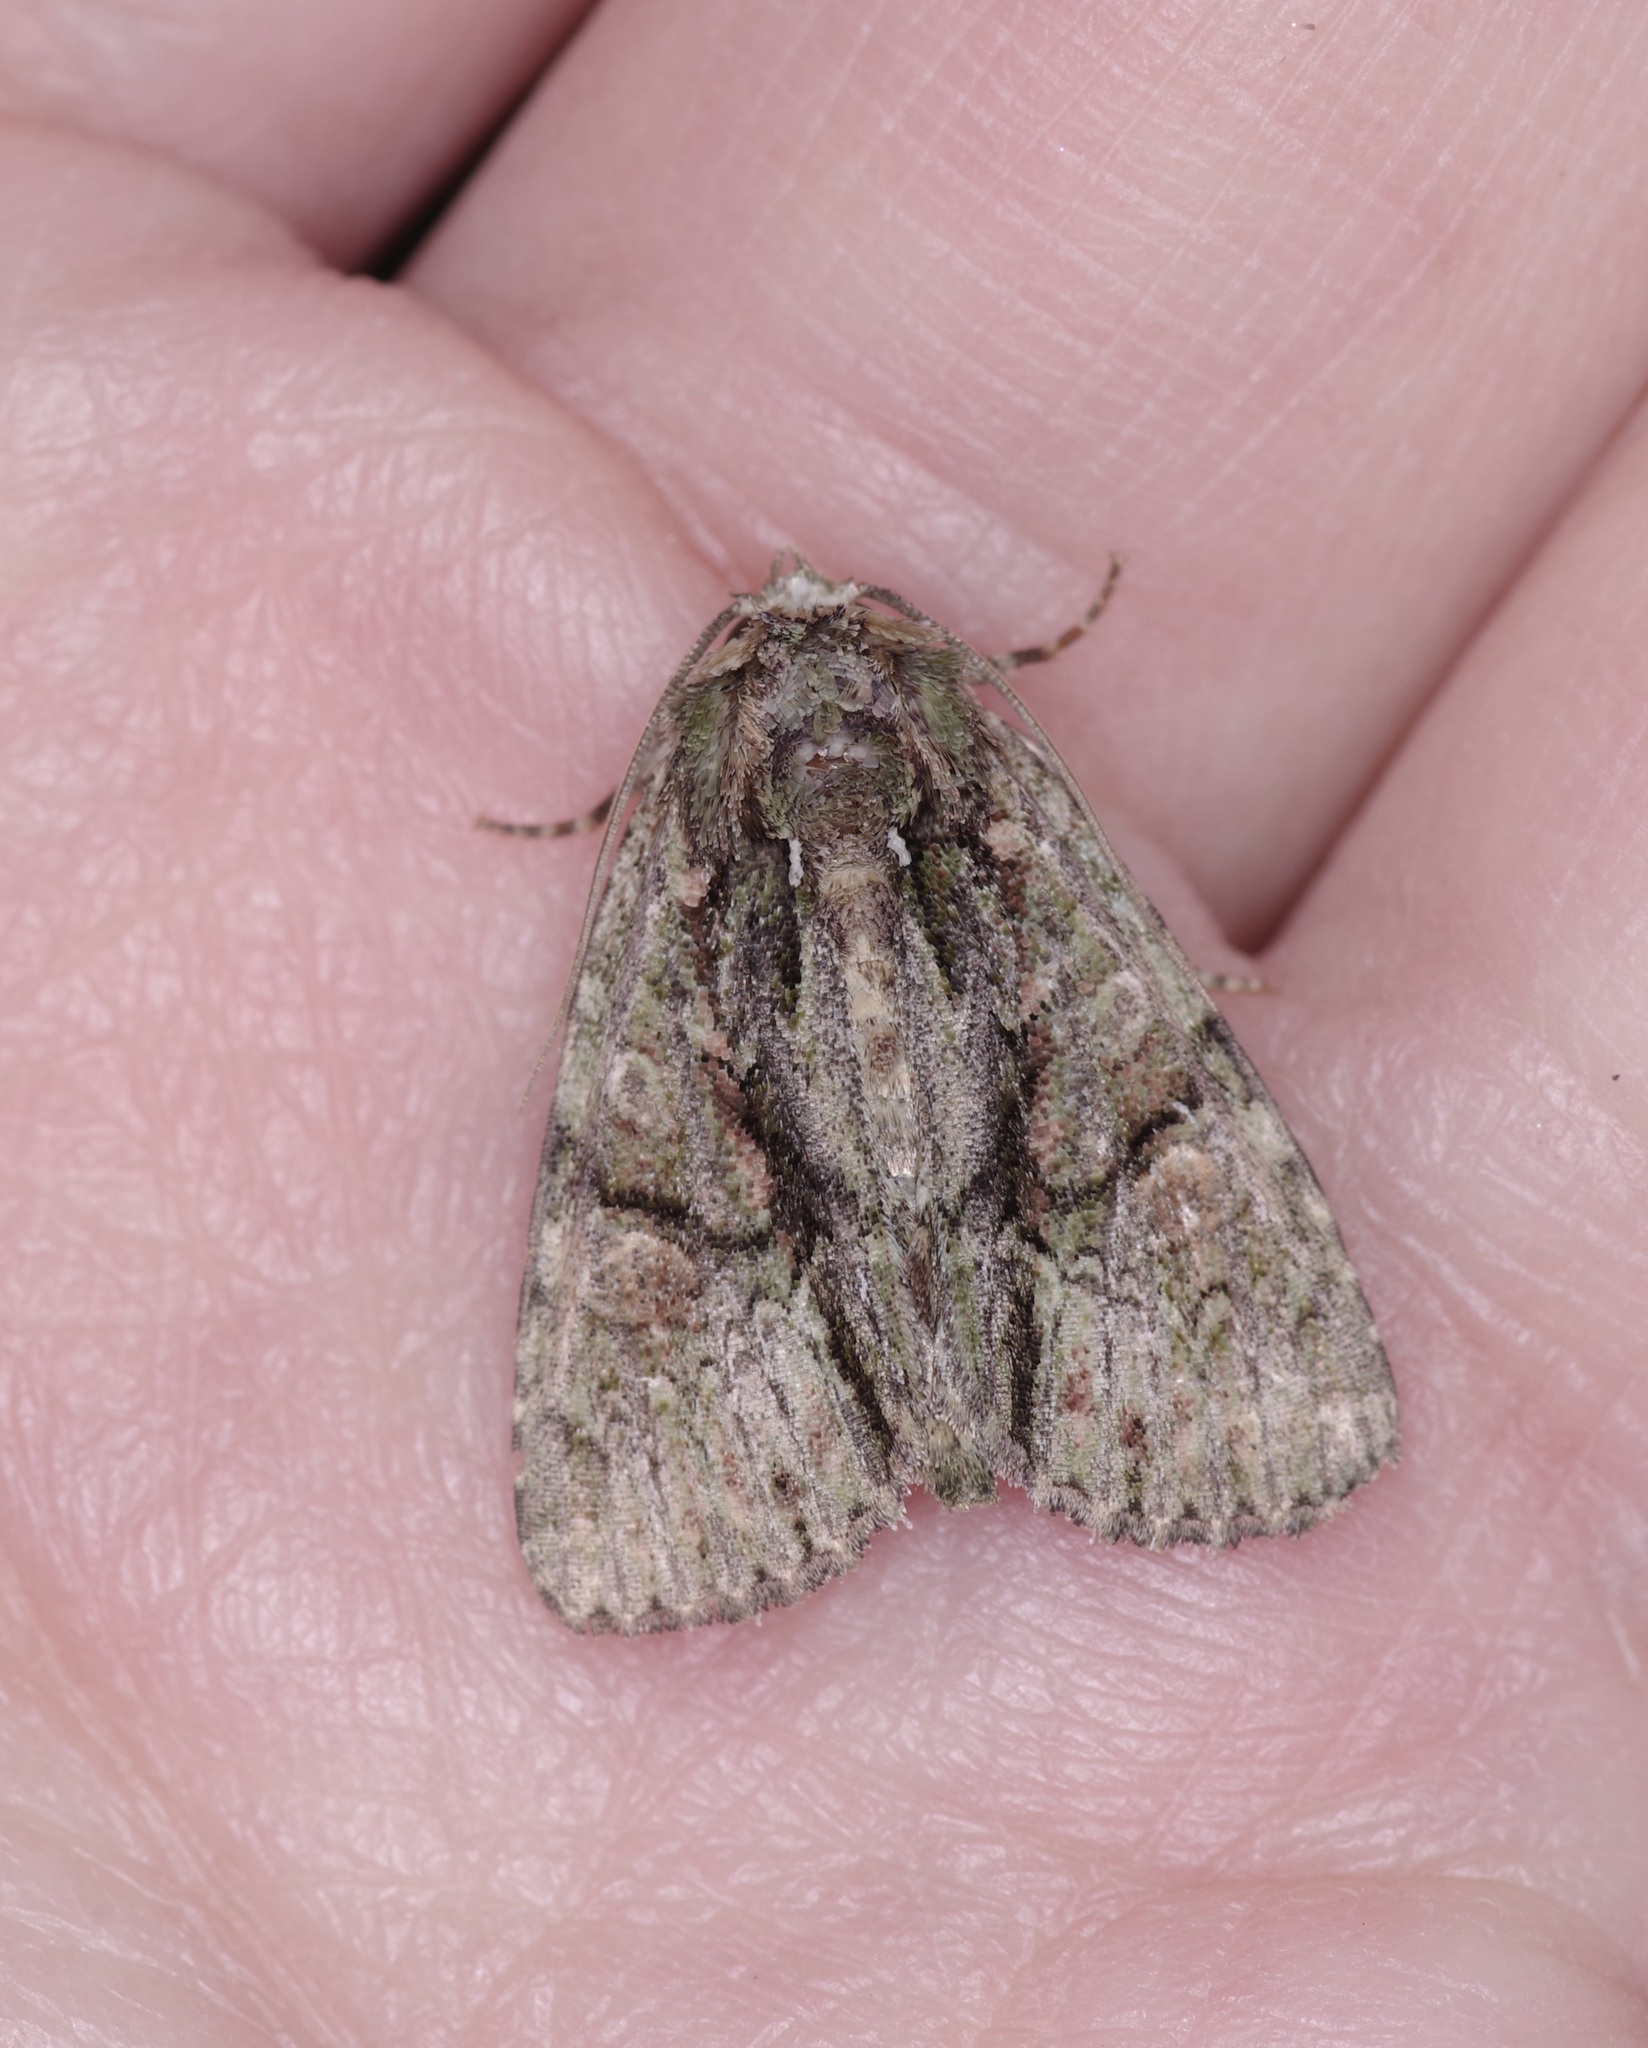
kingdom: Animalia
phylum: Arthropoda
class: Insecta
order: Lepidoptera
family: Noctuidae
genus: Phosphila
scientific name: Phosphila miselioides
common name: Spotted phosphila moth
